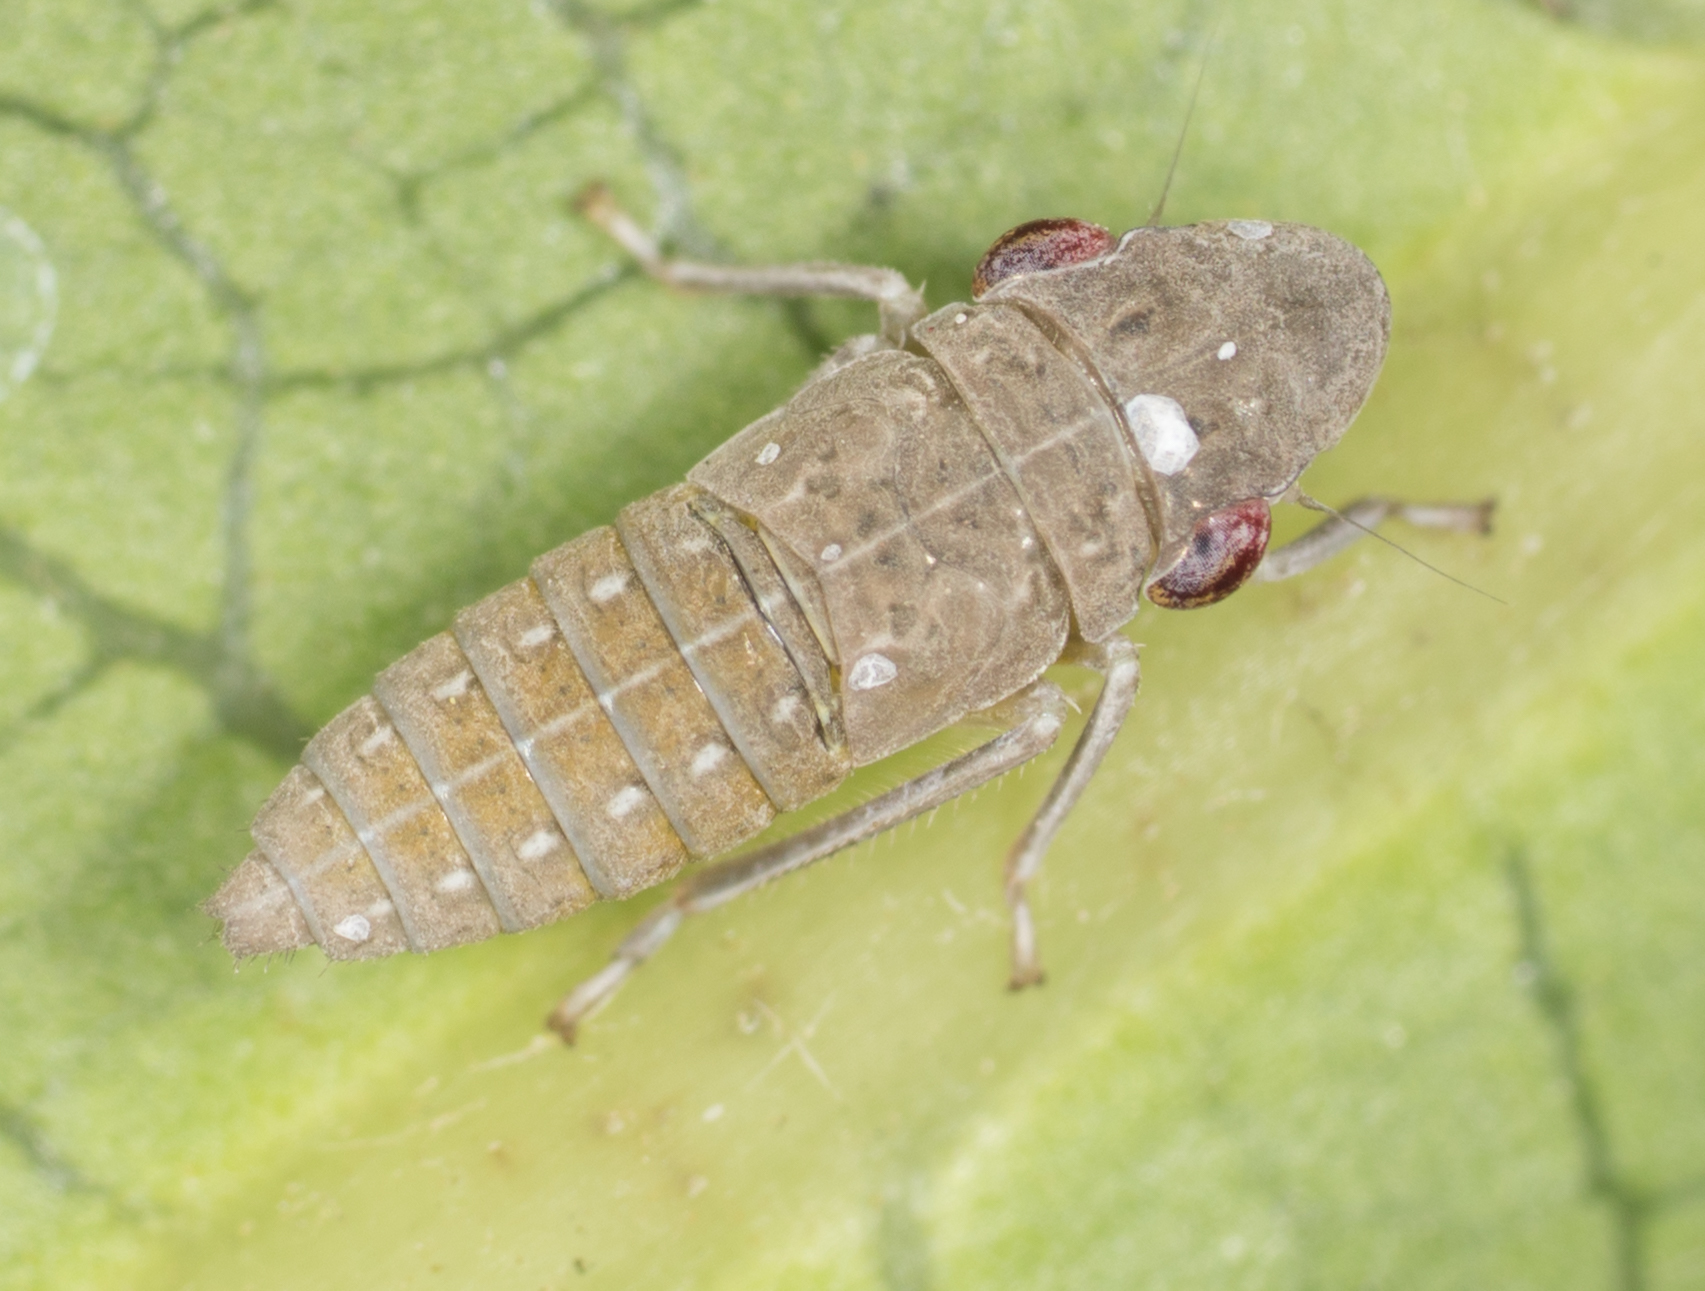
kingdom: Animalia
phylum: Arthropoda
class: Insecta
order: Hemiptera
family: Cicadellidae
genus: Homalodisca
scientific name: Homalodisca
